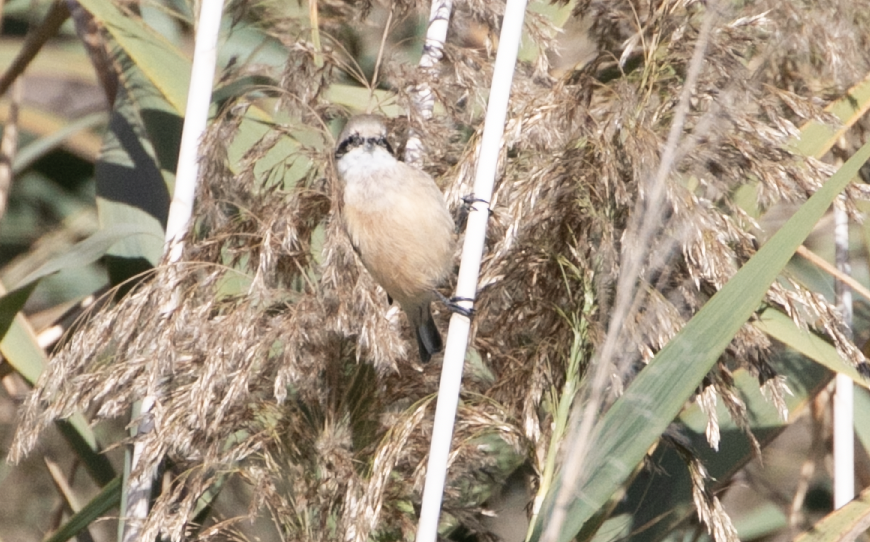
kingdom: Animalia
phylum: Chordata
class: Aves
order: Passeriformes
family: Remizidae
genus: Remiz
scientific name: Remiz pendulinus
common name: Eurasian penduline tit
